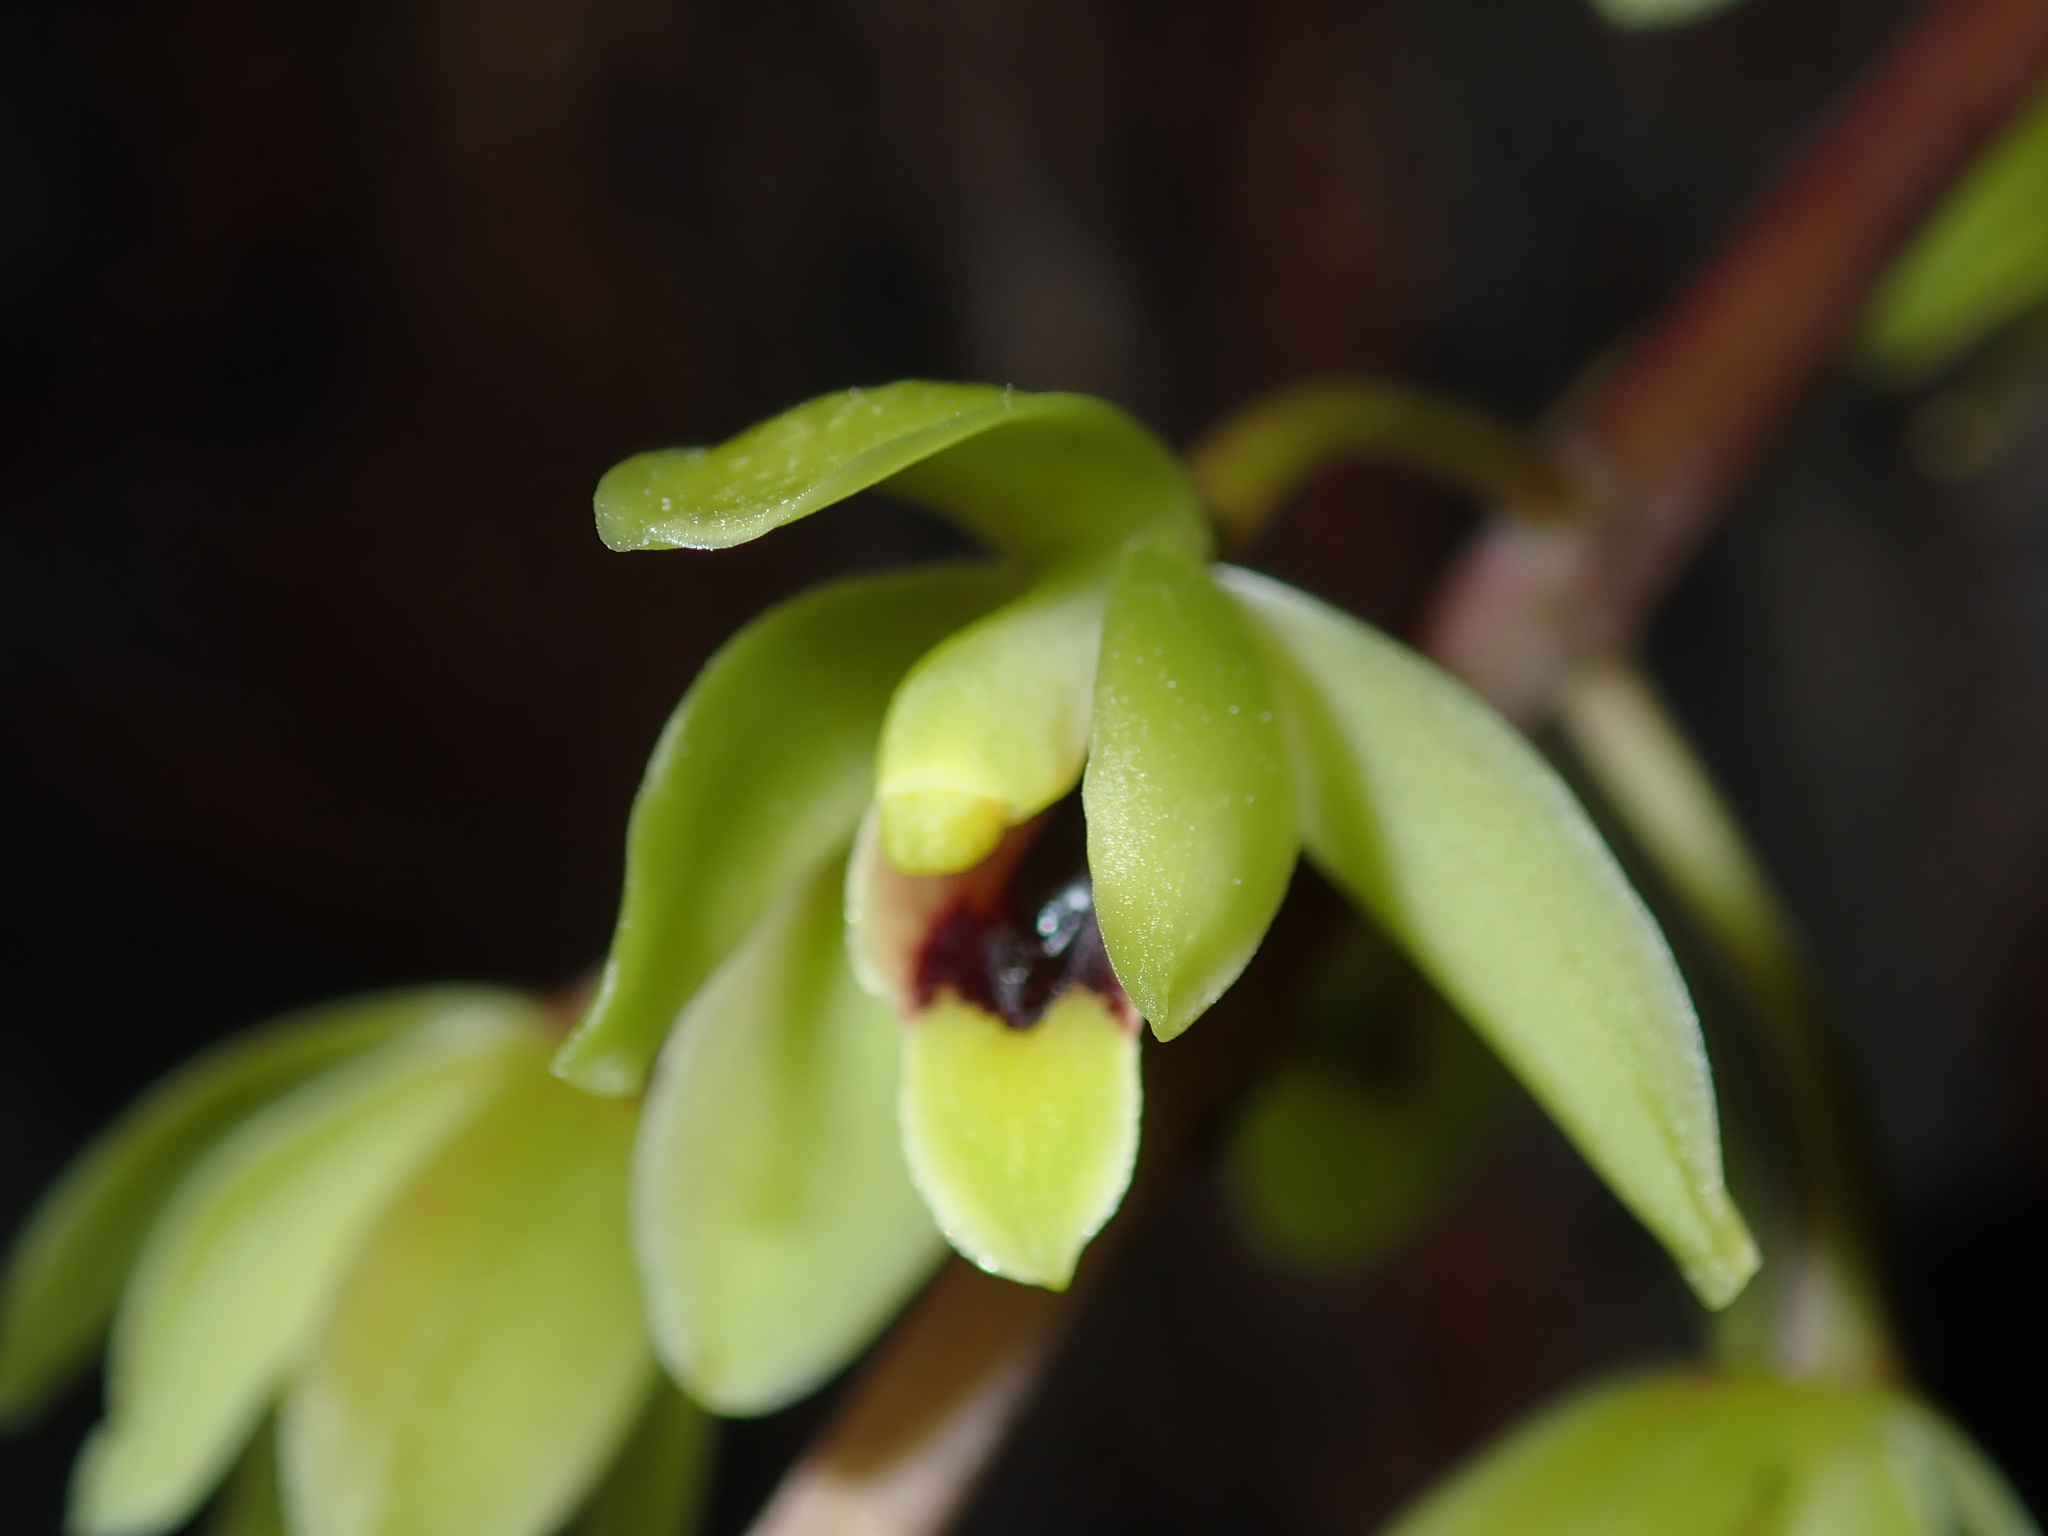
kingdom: Plantae
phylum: Tracheophyta
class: Liliopsida
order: Asparagales
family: Orchidaceae
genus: Cymbidium
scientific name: Cymbidium suave
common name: Snake orchid
